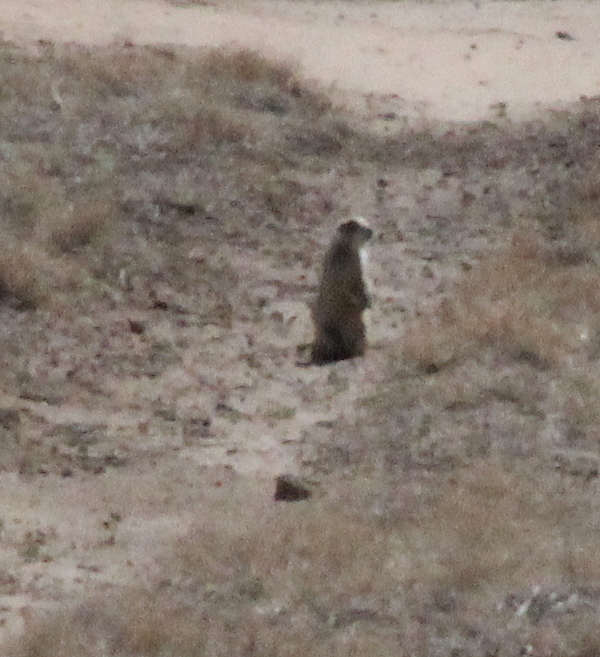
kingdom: Animalia
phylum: Chordata
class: Mammalia
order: Rodentia
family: Sciuridae
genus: Cynomys
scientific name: Cynomys ludovicianus
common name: Black-tailed prairie dog
